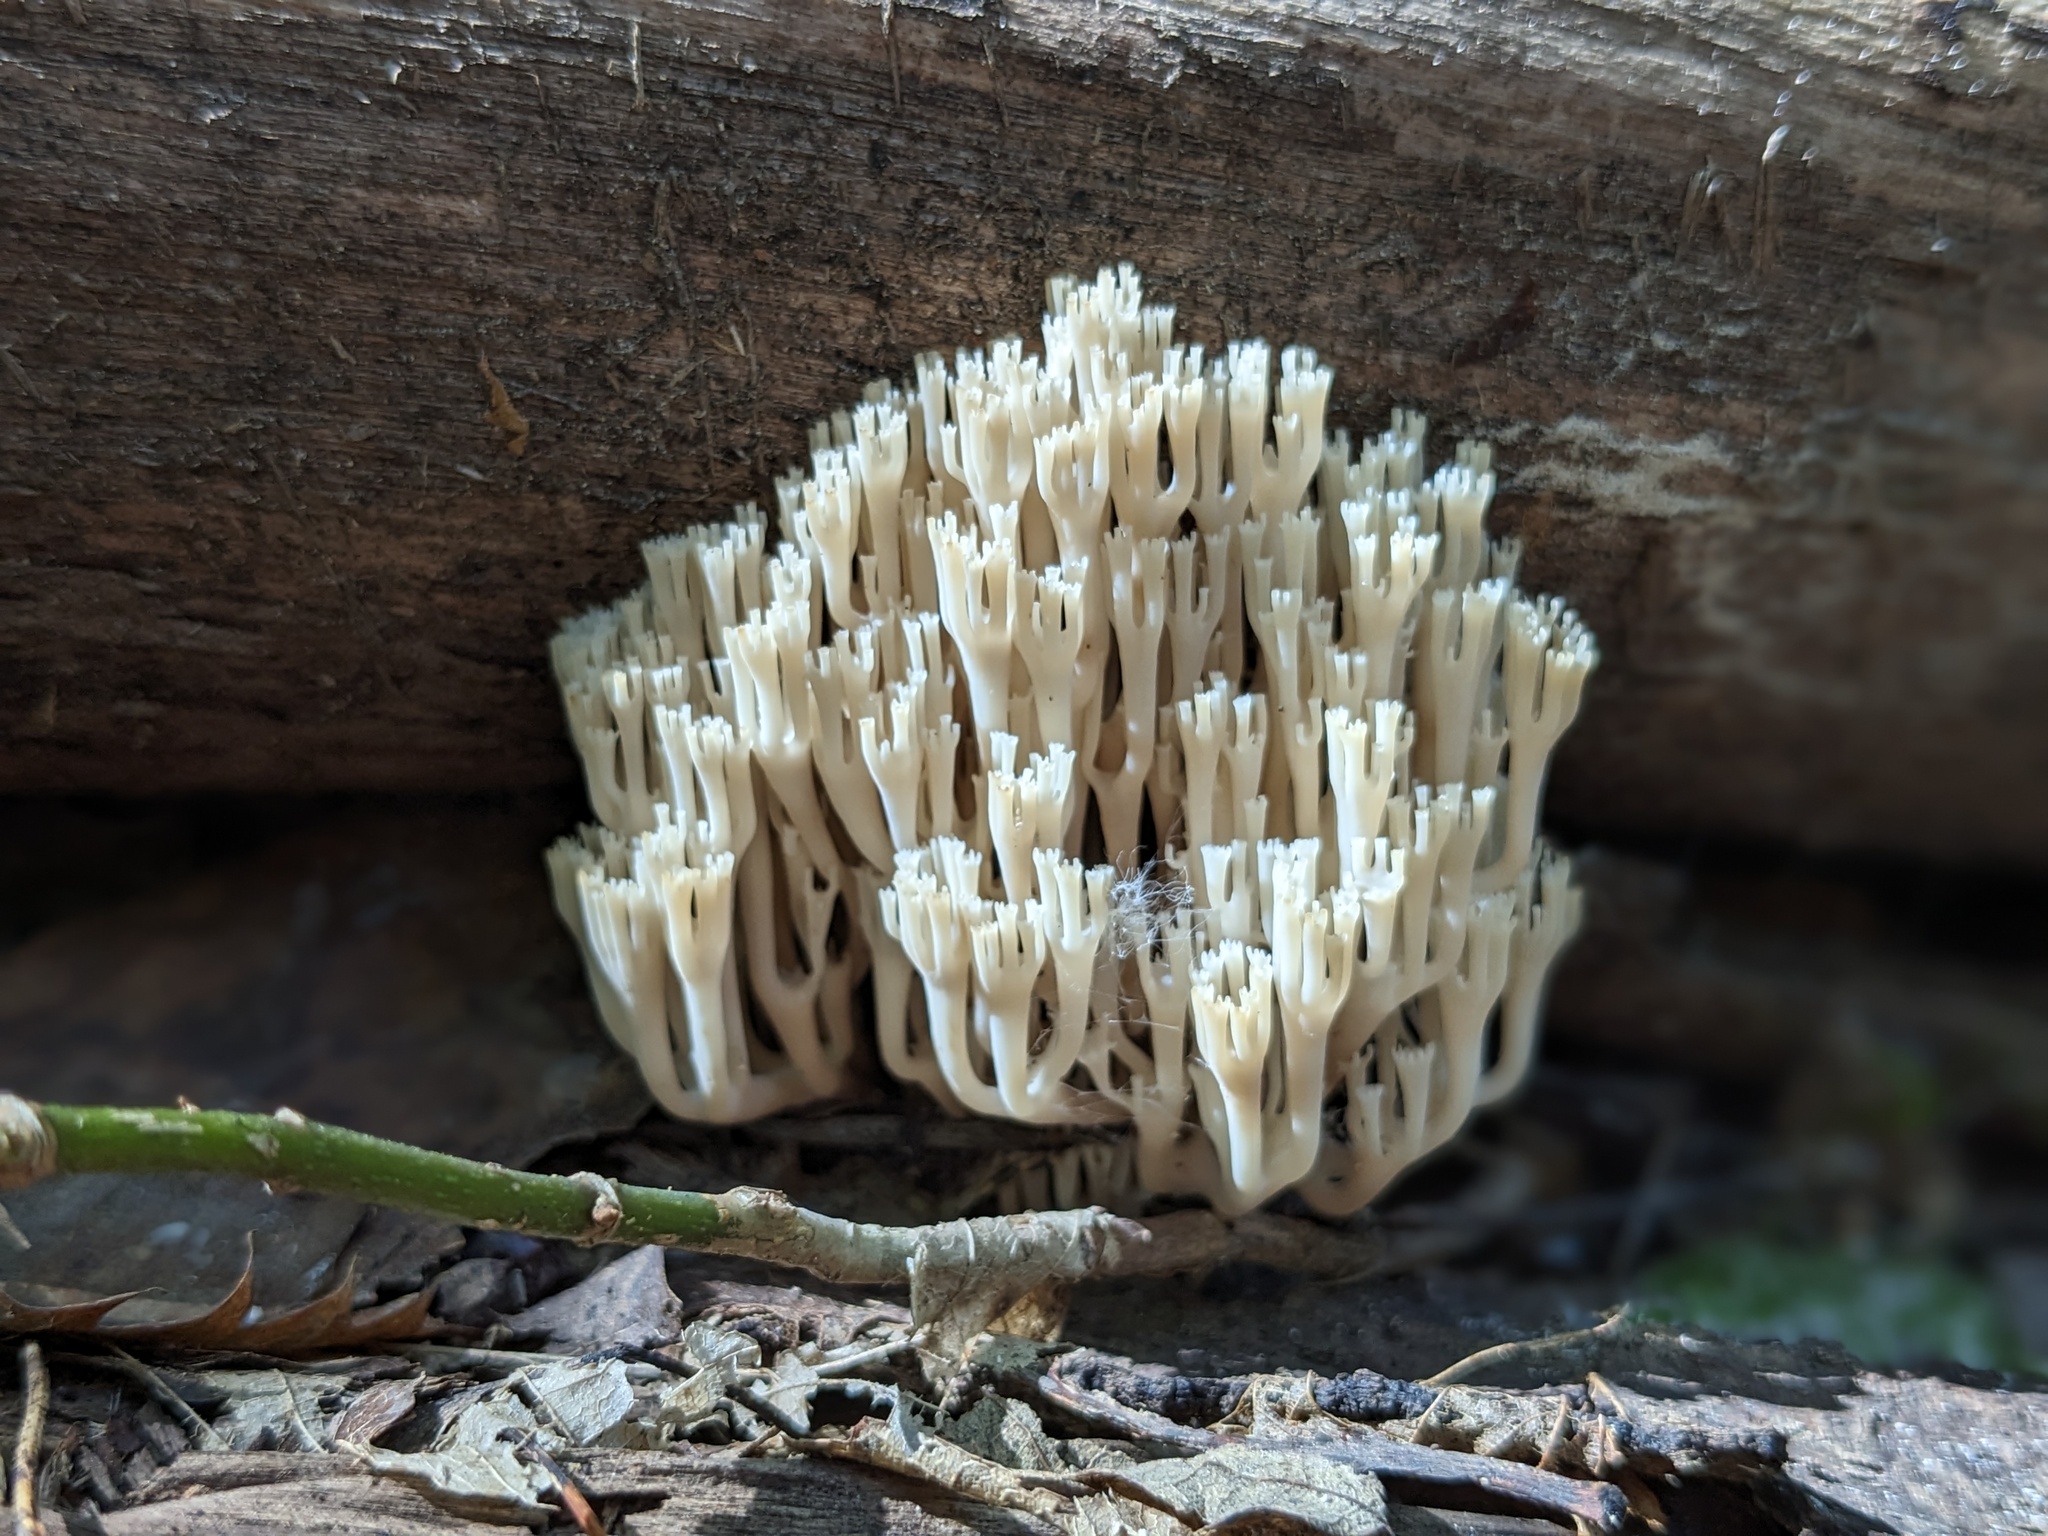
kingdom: Fungi
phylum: Basidiomycota
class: Agaricomycetes
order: Russulales
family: Auriscalpiaceae
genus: Artomyces
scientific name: Artomyces pyxidatus
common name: Crown-tipped coral fungus
